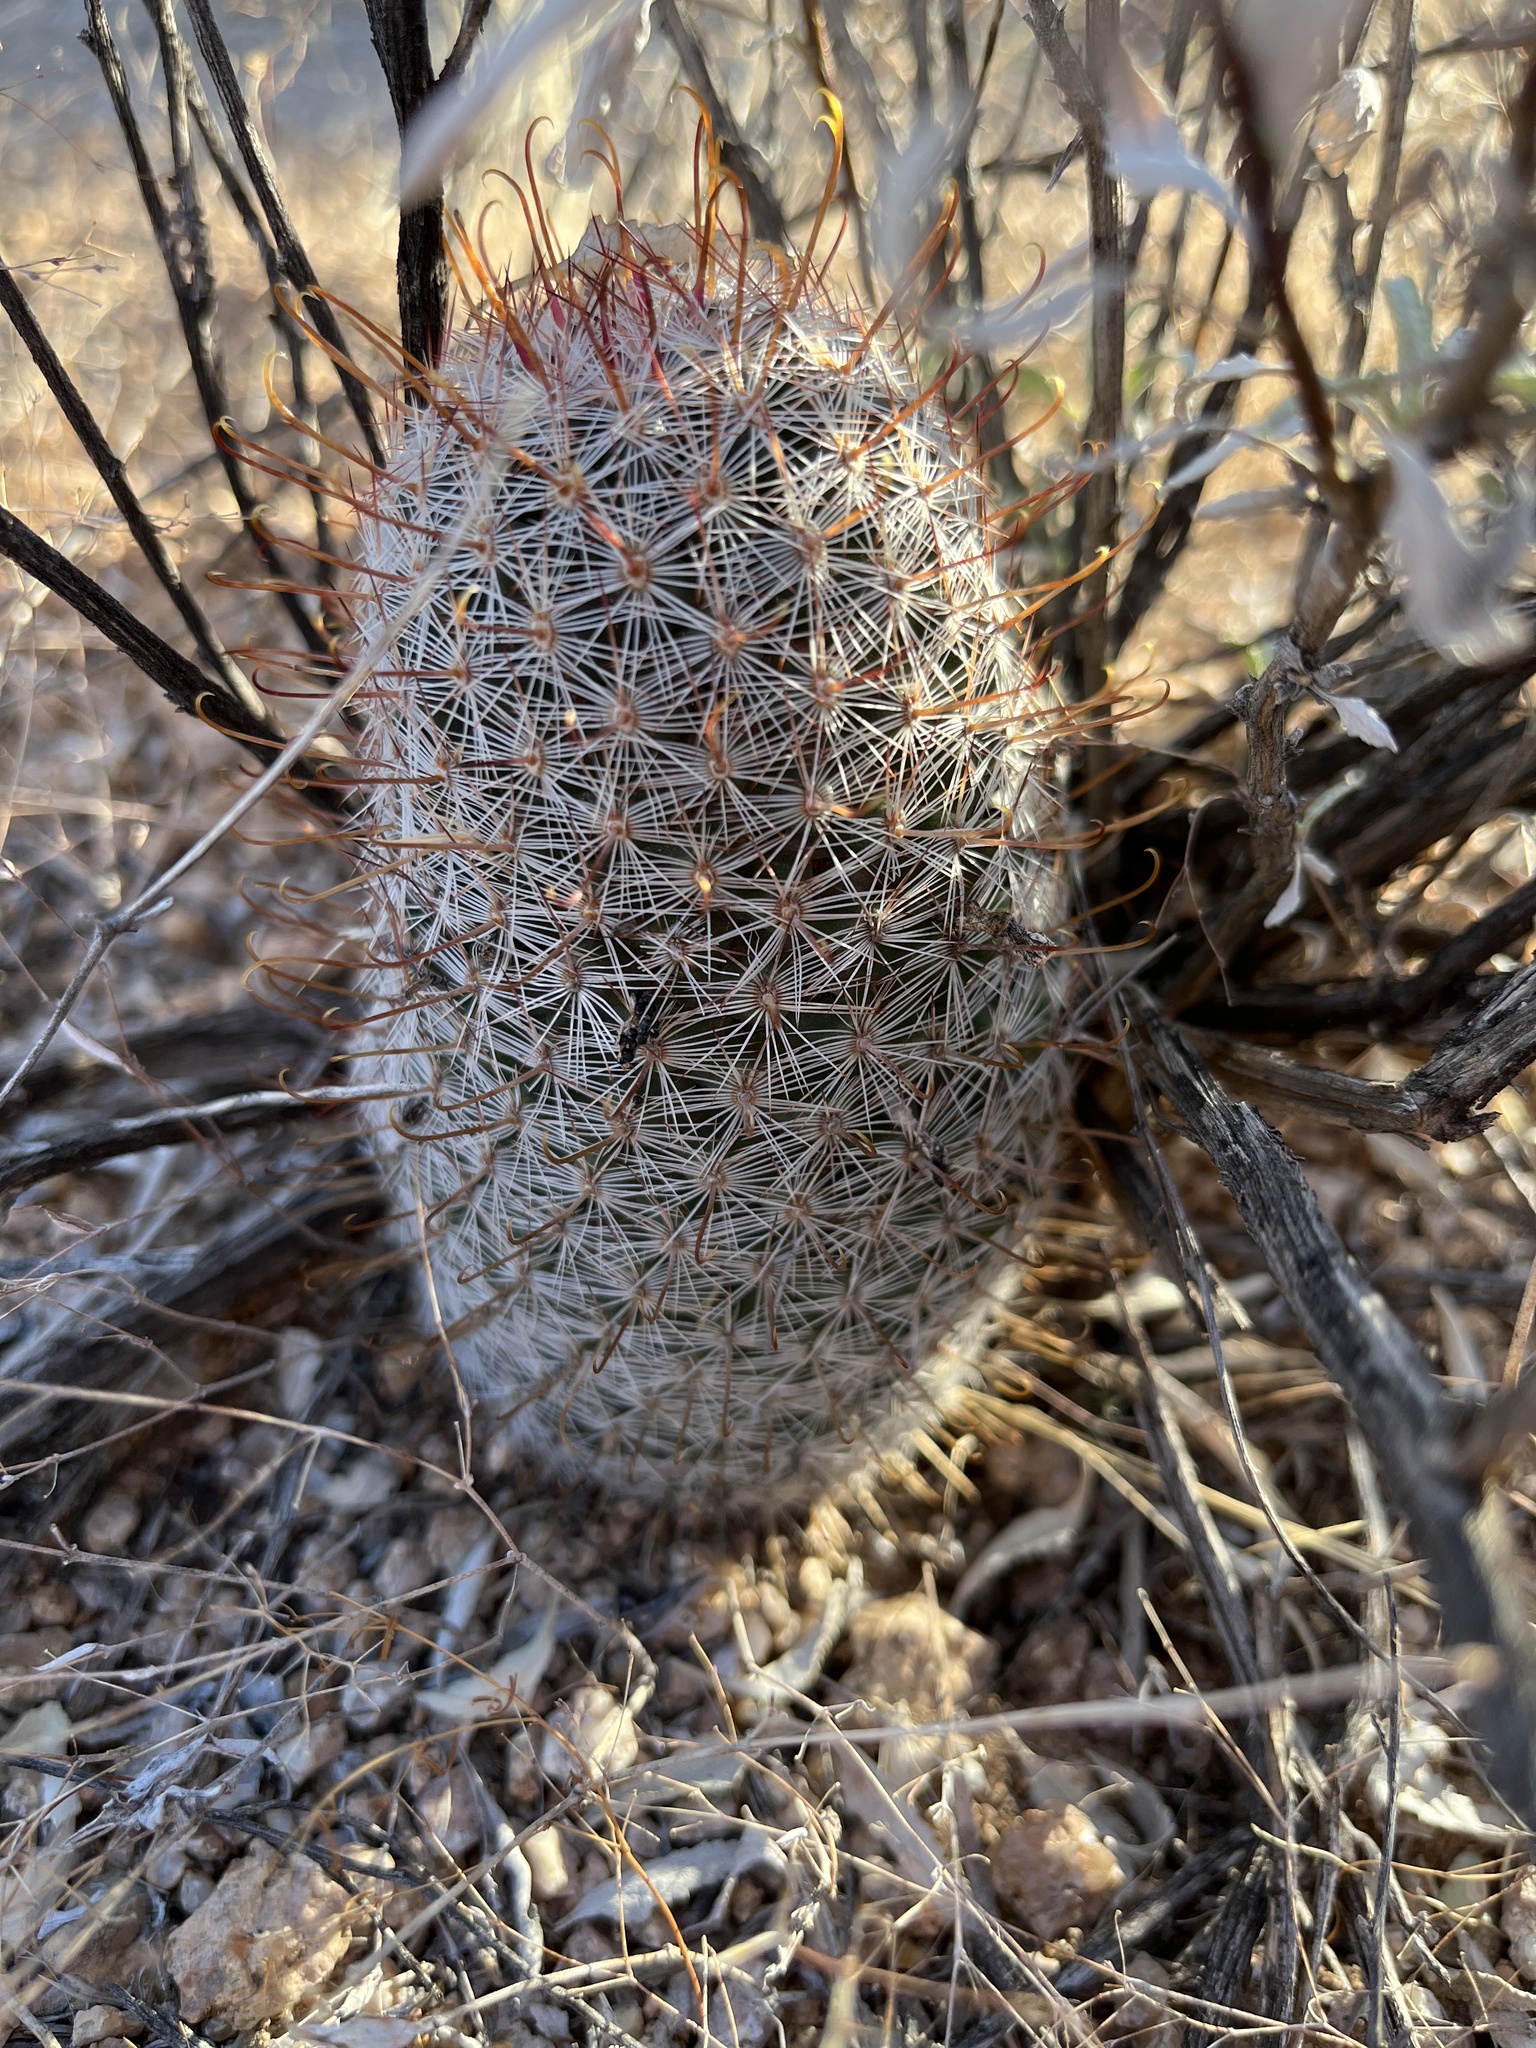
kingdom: Plantae
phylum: Tracheophyta
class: Magnoliopsida
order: Caryophyllales
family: Cactaceae
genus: Cochemiea
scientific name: Cochemiea grahamii
